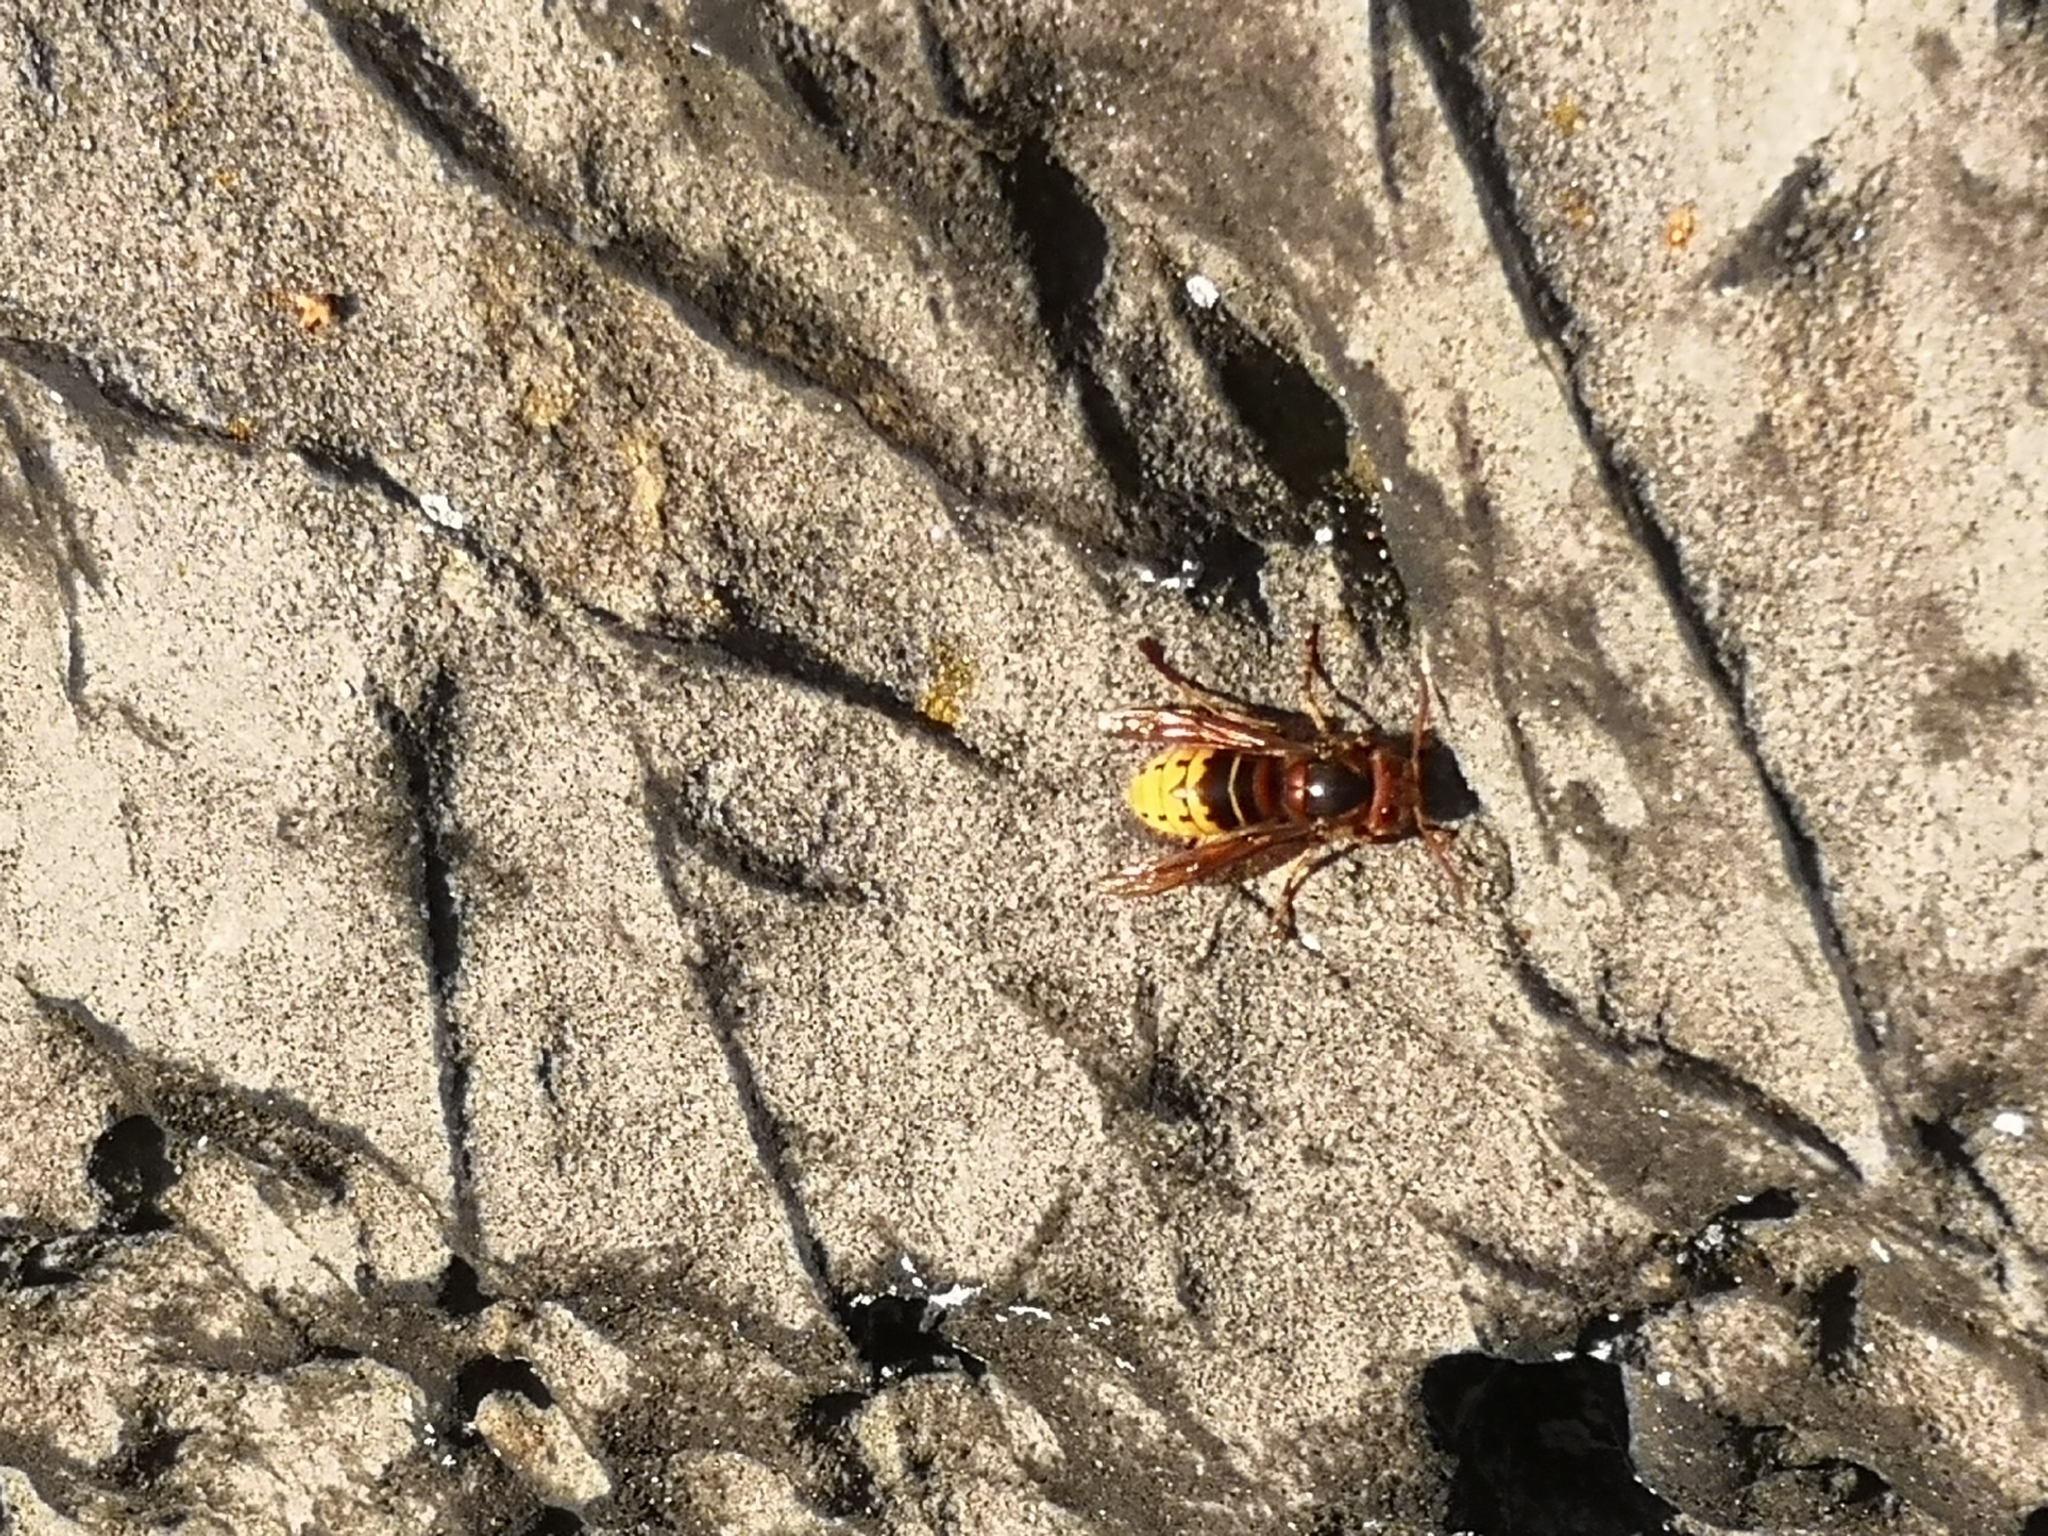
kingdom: Animalia
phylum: Arthropoda
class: Insecta
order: Hymenoptera
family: Vespidae
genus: Vespa
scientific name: Vespa crabro
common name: Hornet
